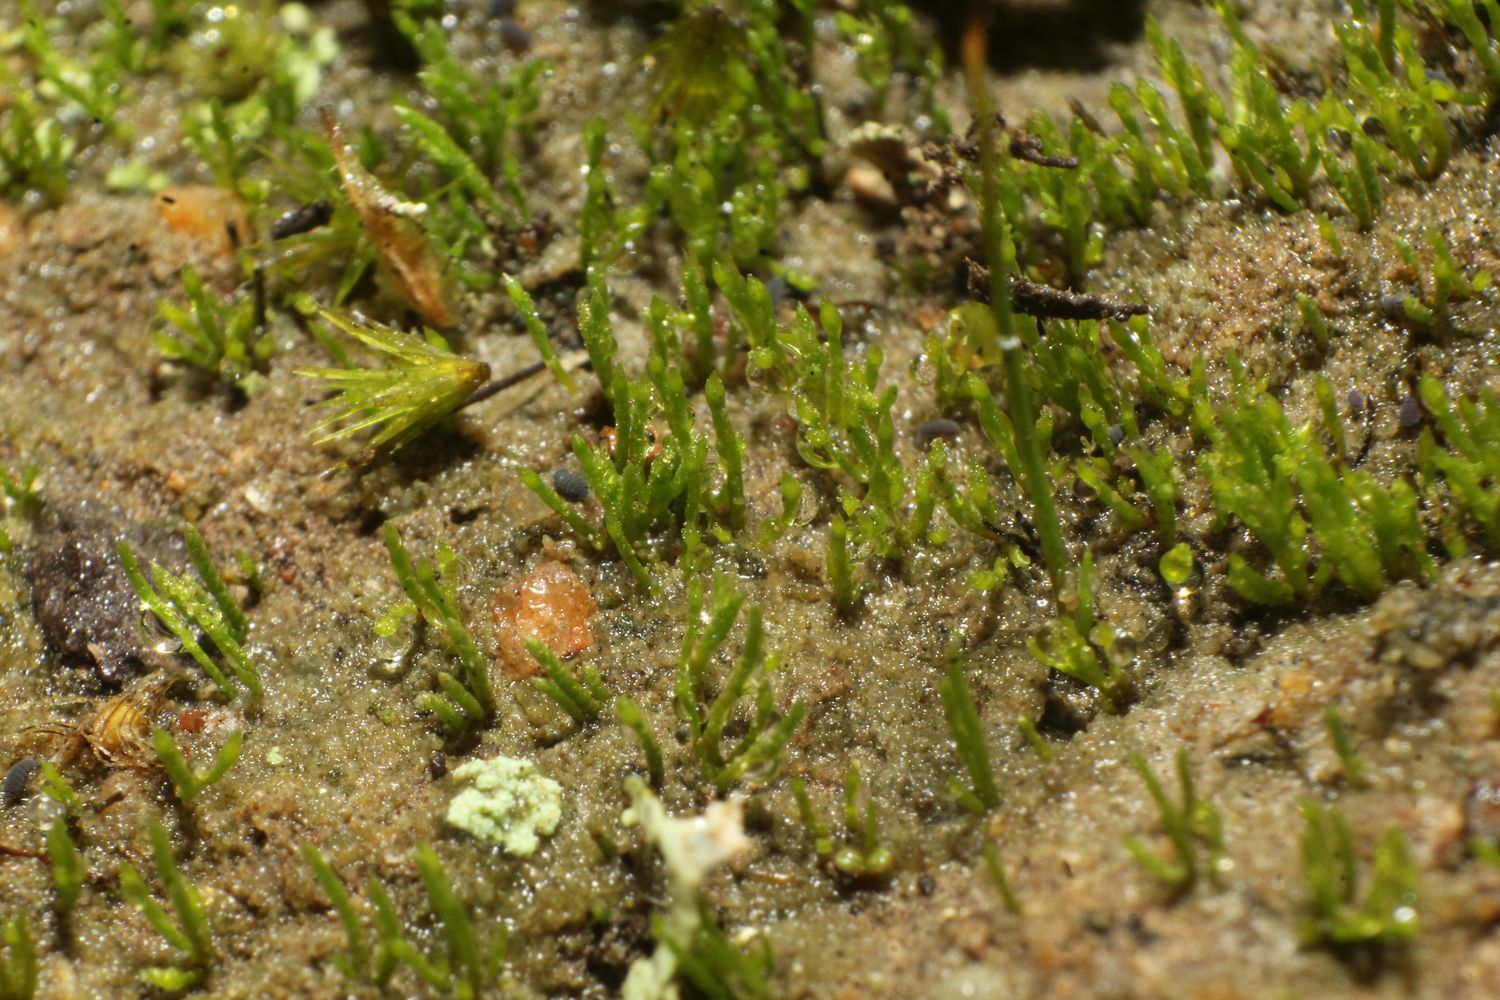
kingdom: Plantae
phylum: Bryophyta
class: Bryopsida
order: Dicranales
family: Dicranellaceae
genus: Eccremidium
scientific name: Eccremidium pulchellum
